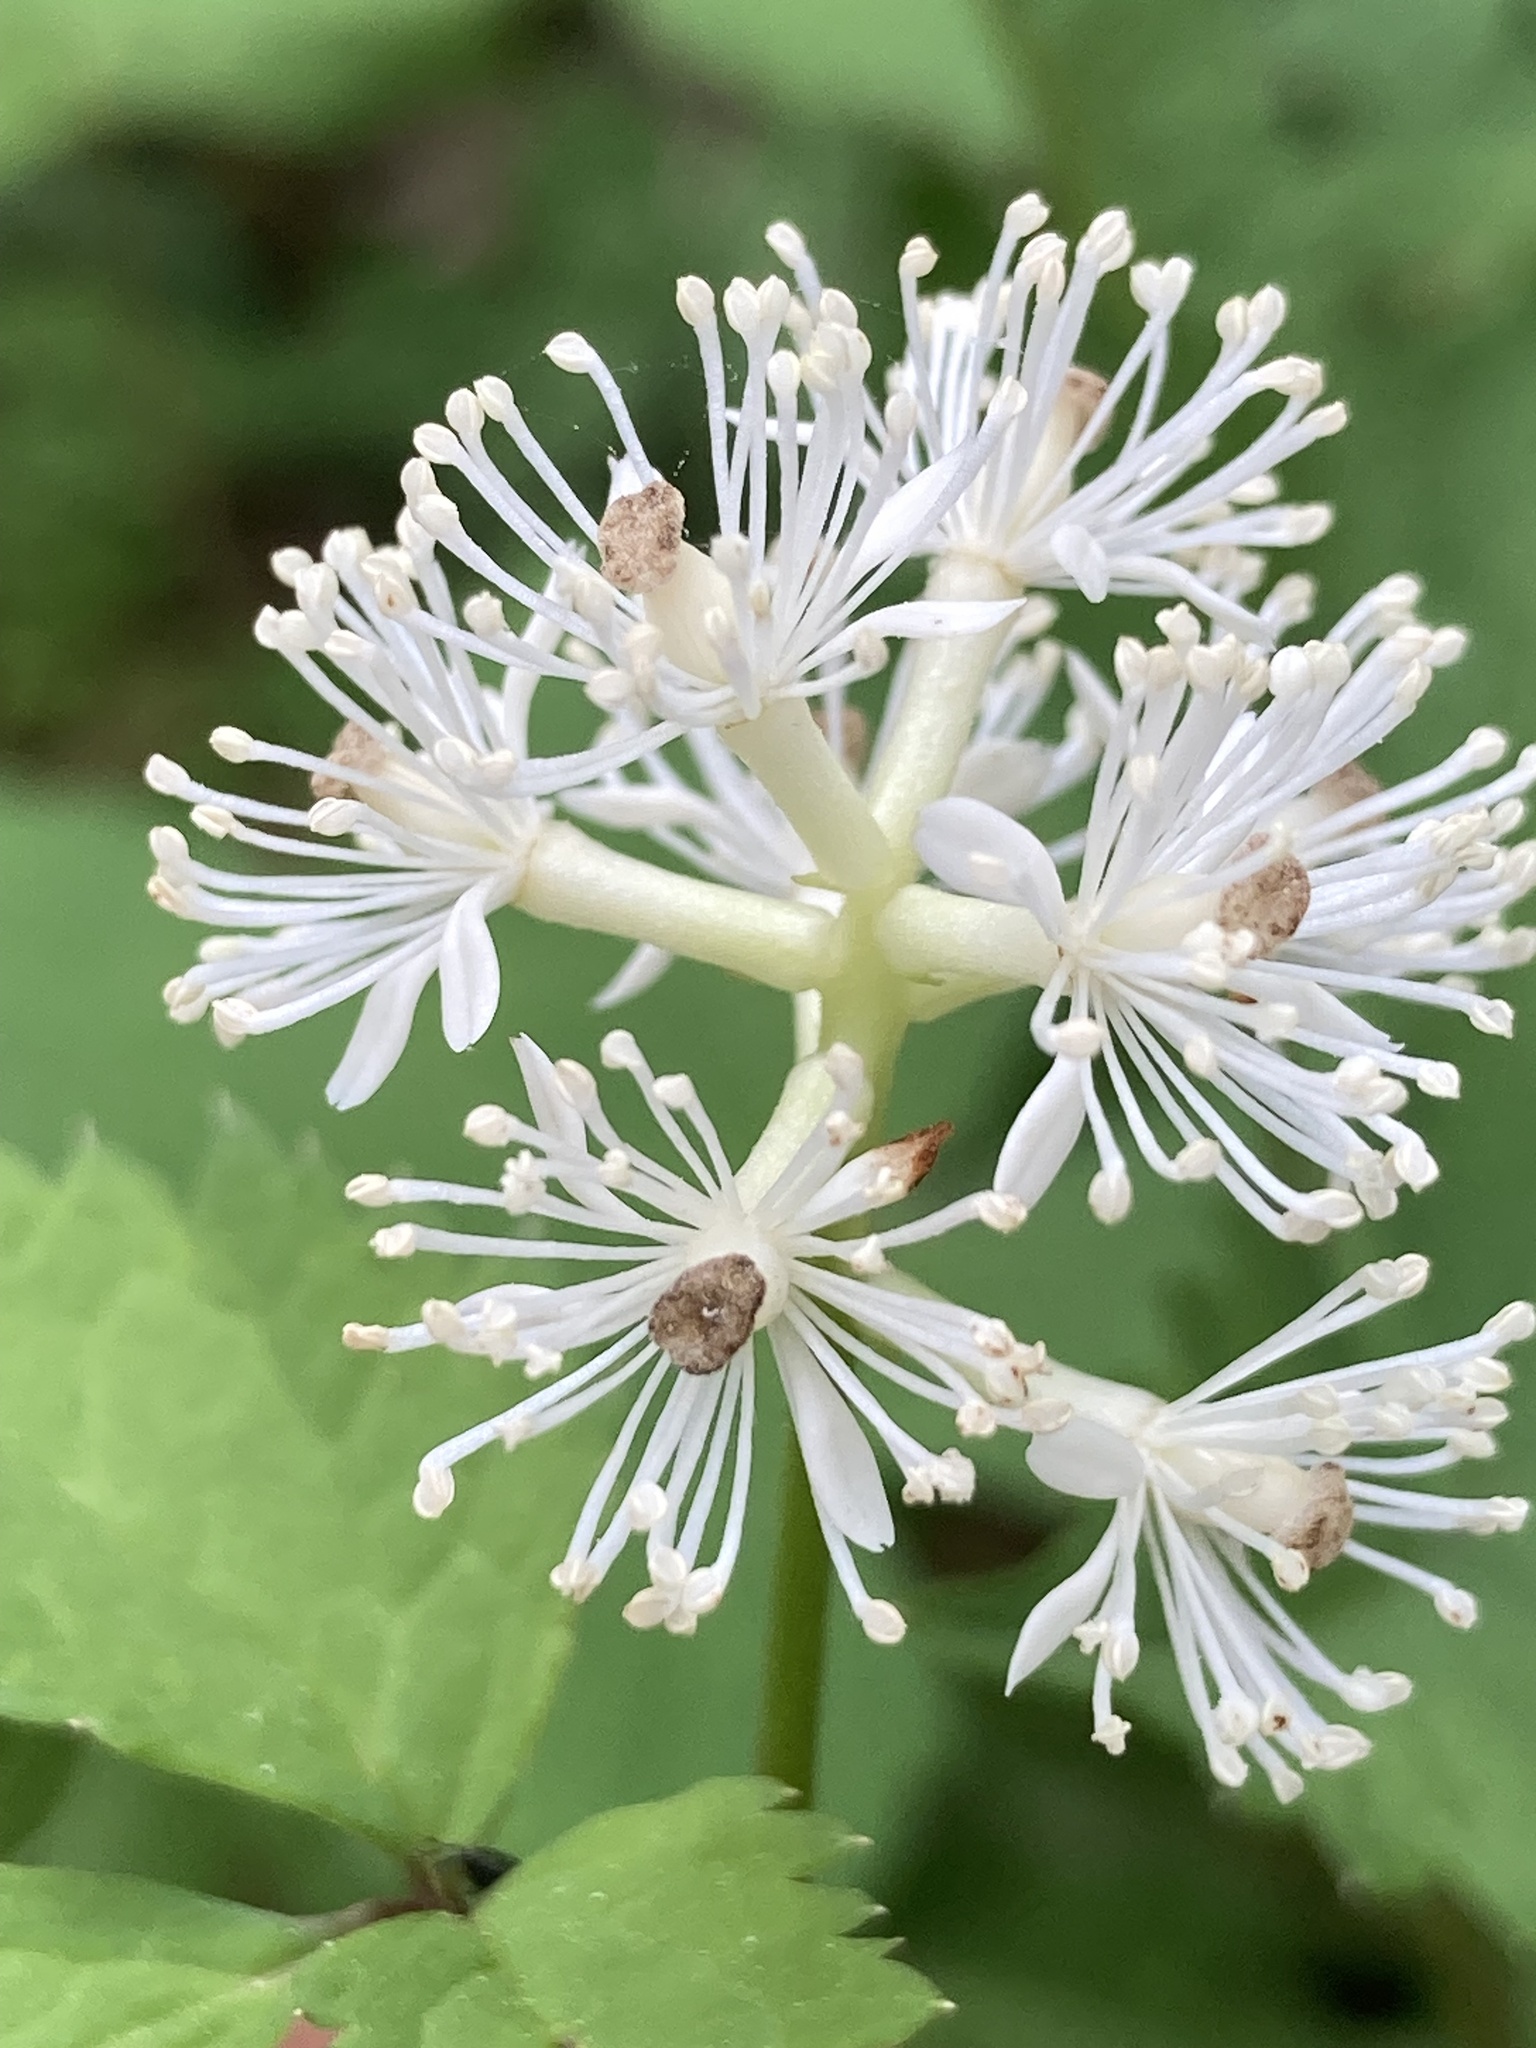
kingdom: Plantae
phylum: Tracheophyta
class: Magnoliopsida
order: Ranunculales
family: Ranunculaceae
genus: Actaea
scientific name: Actaea pachypoda
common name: Doll's-eyes
